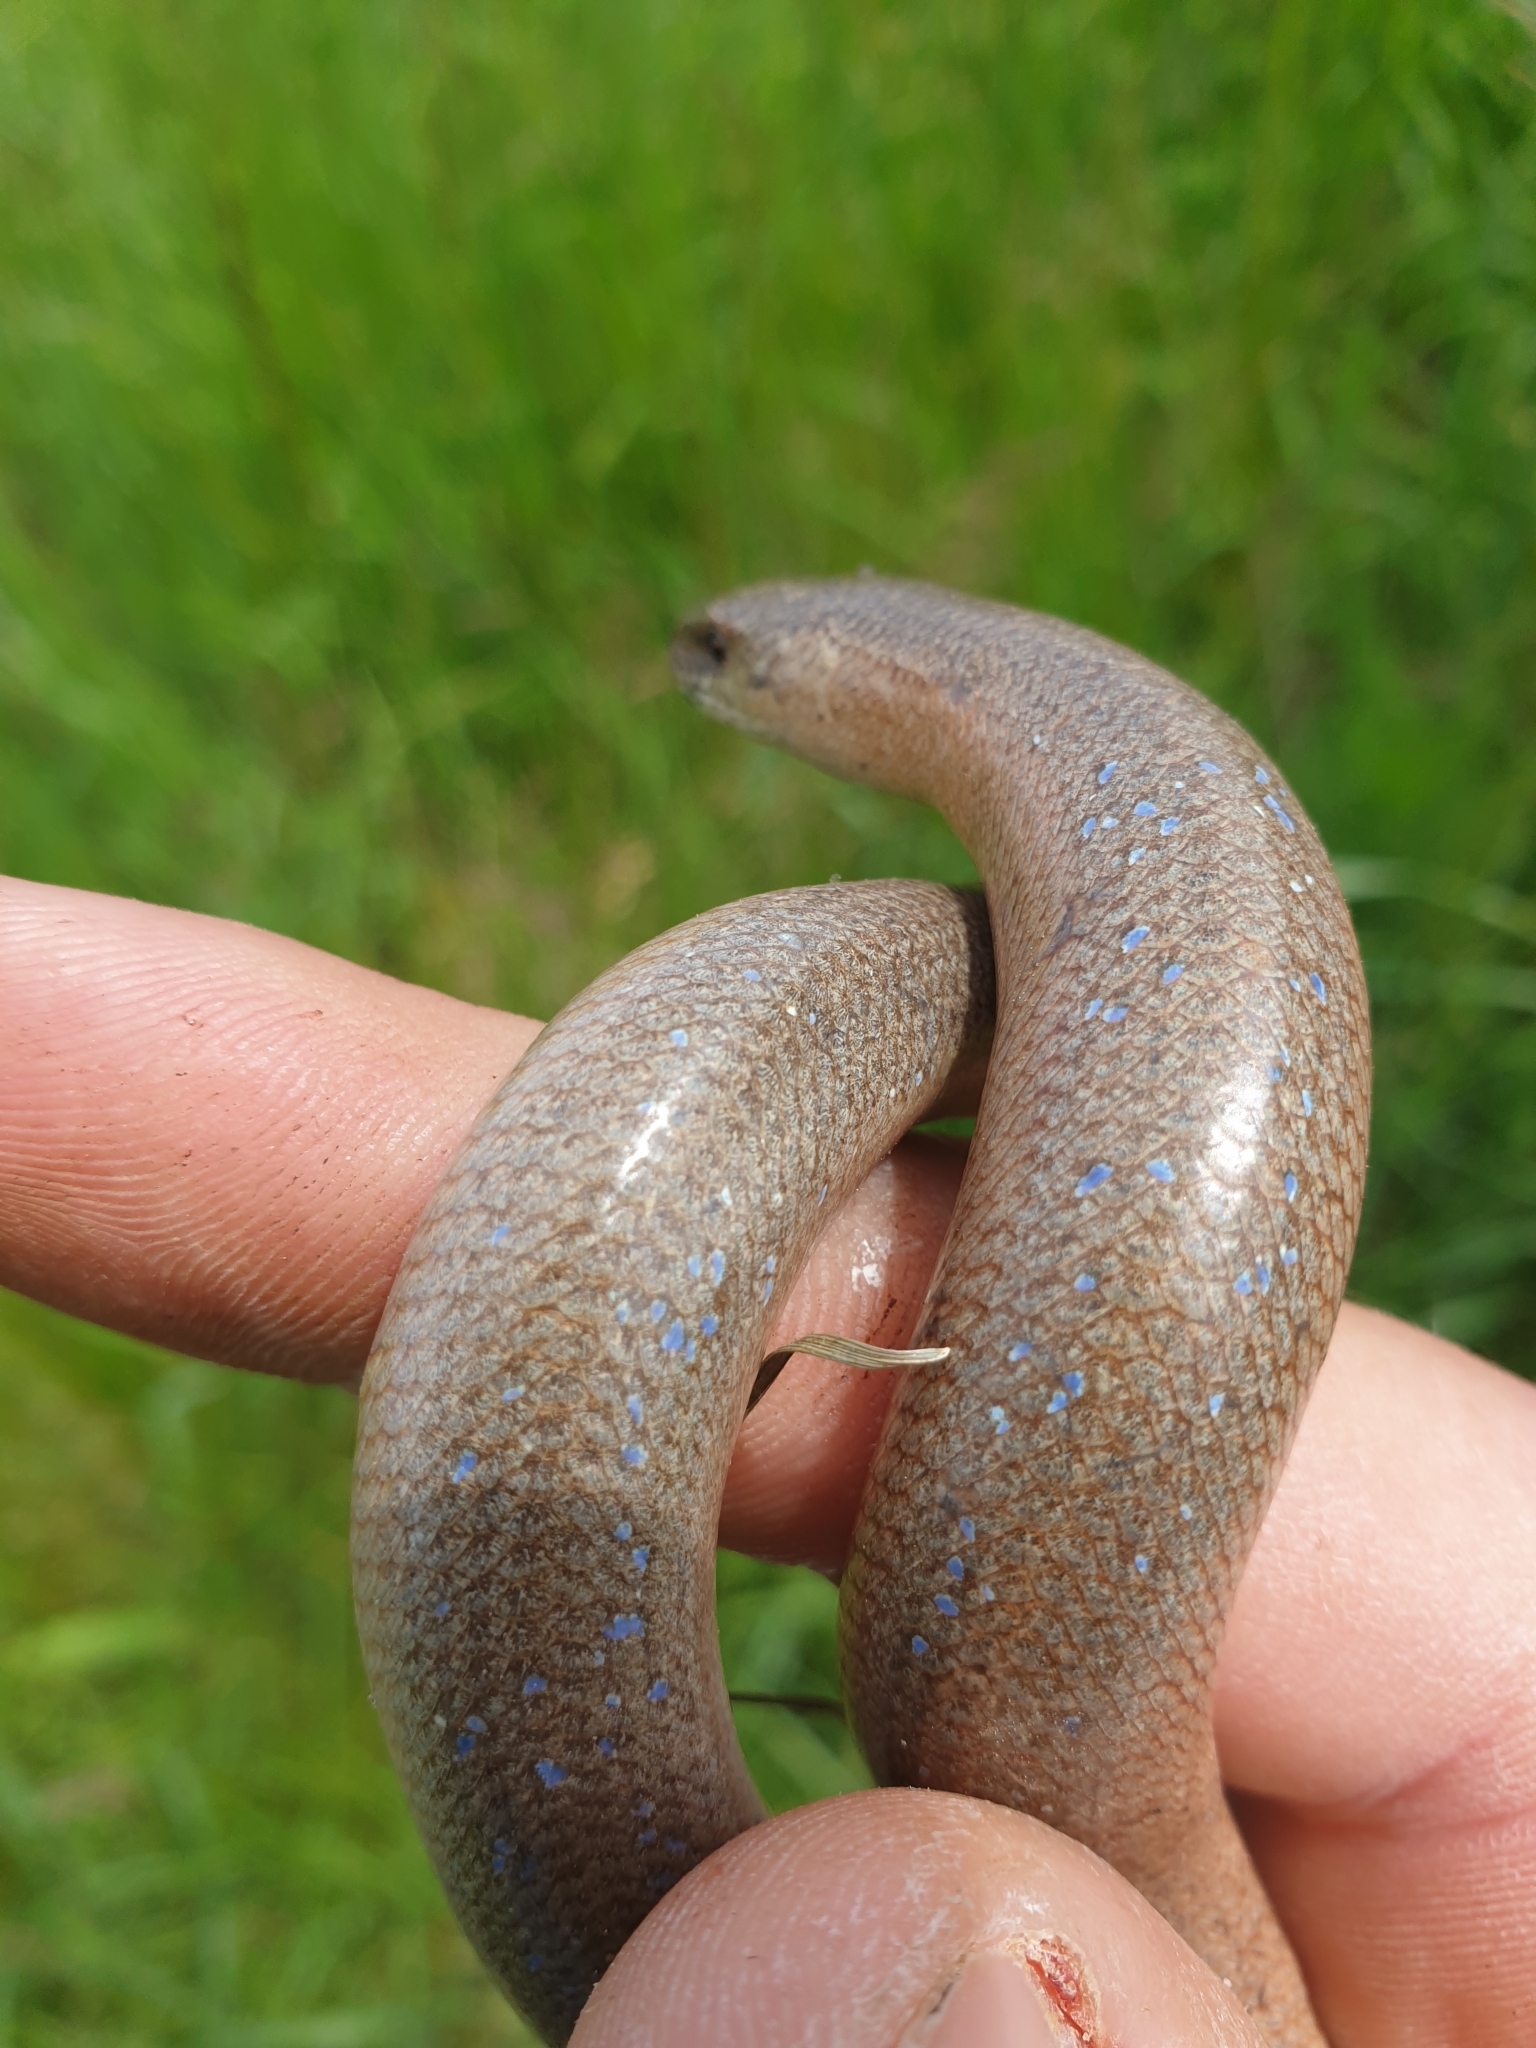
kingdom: Animalia
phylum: Chordata
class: Squamata
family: Anguidae
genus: Anguis
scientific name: Anguis fragilis
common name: Slow worm
